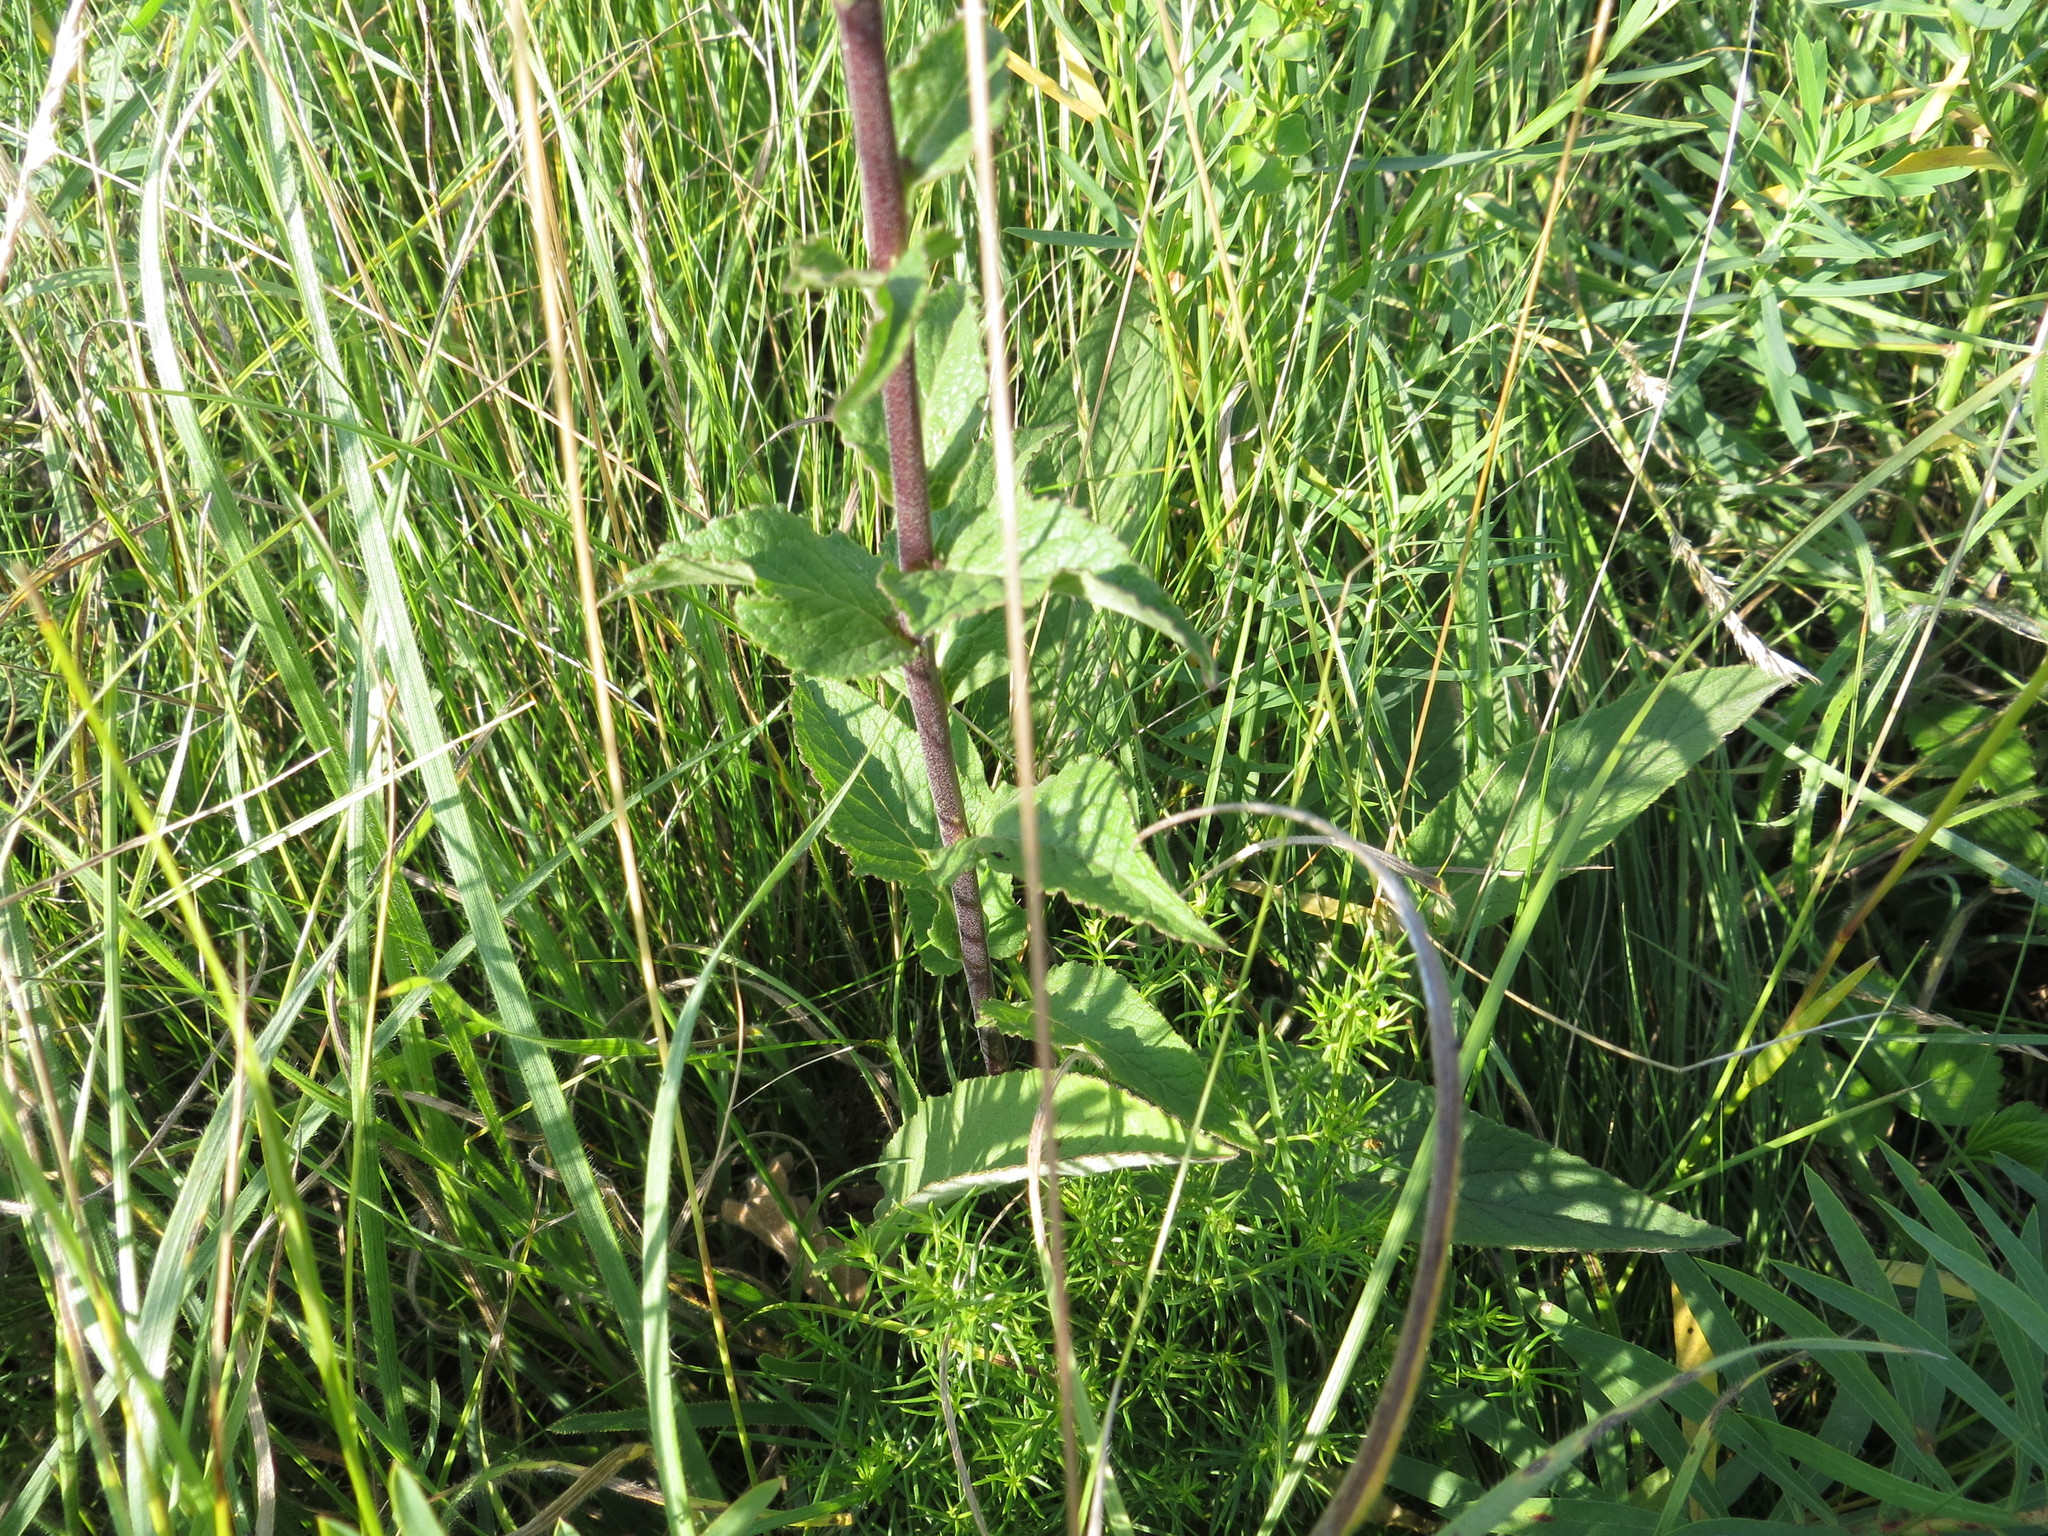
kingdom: Plantae
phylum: Tracheophyta
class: Magnoliopsida
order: Asterales
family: Campanulaceae
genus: Campanula
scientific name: Campanula bononiensis
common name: Pale bellflower
